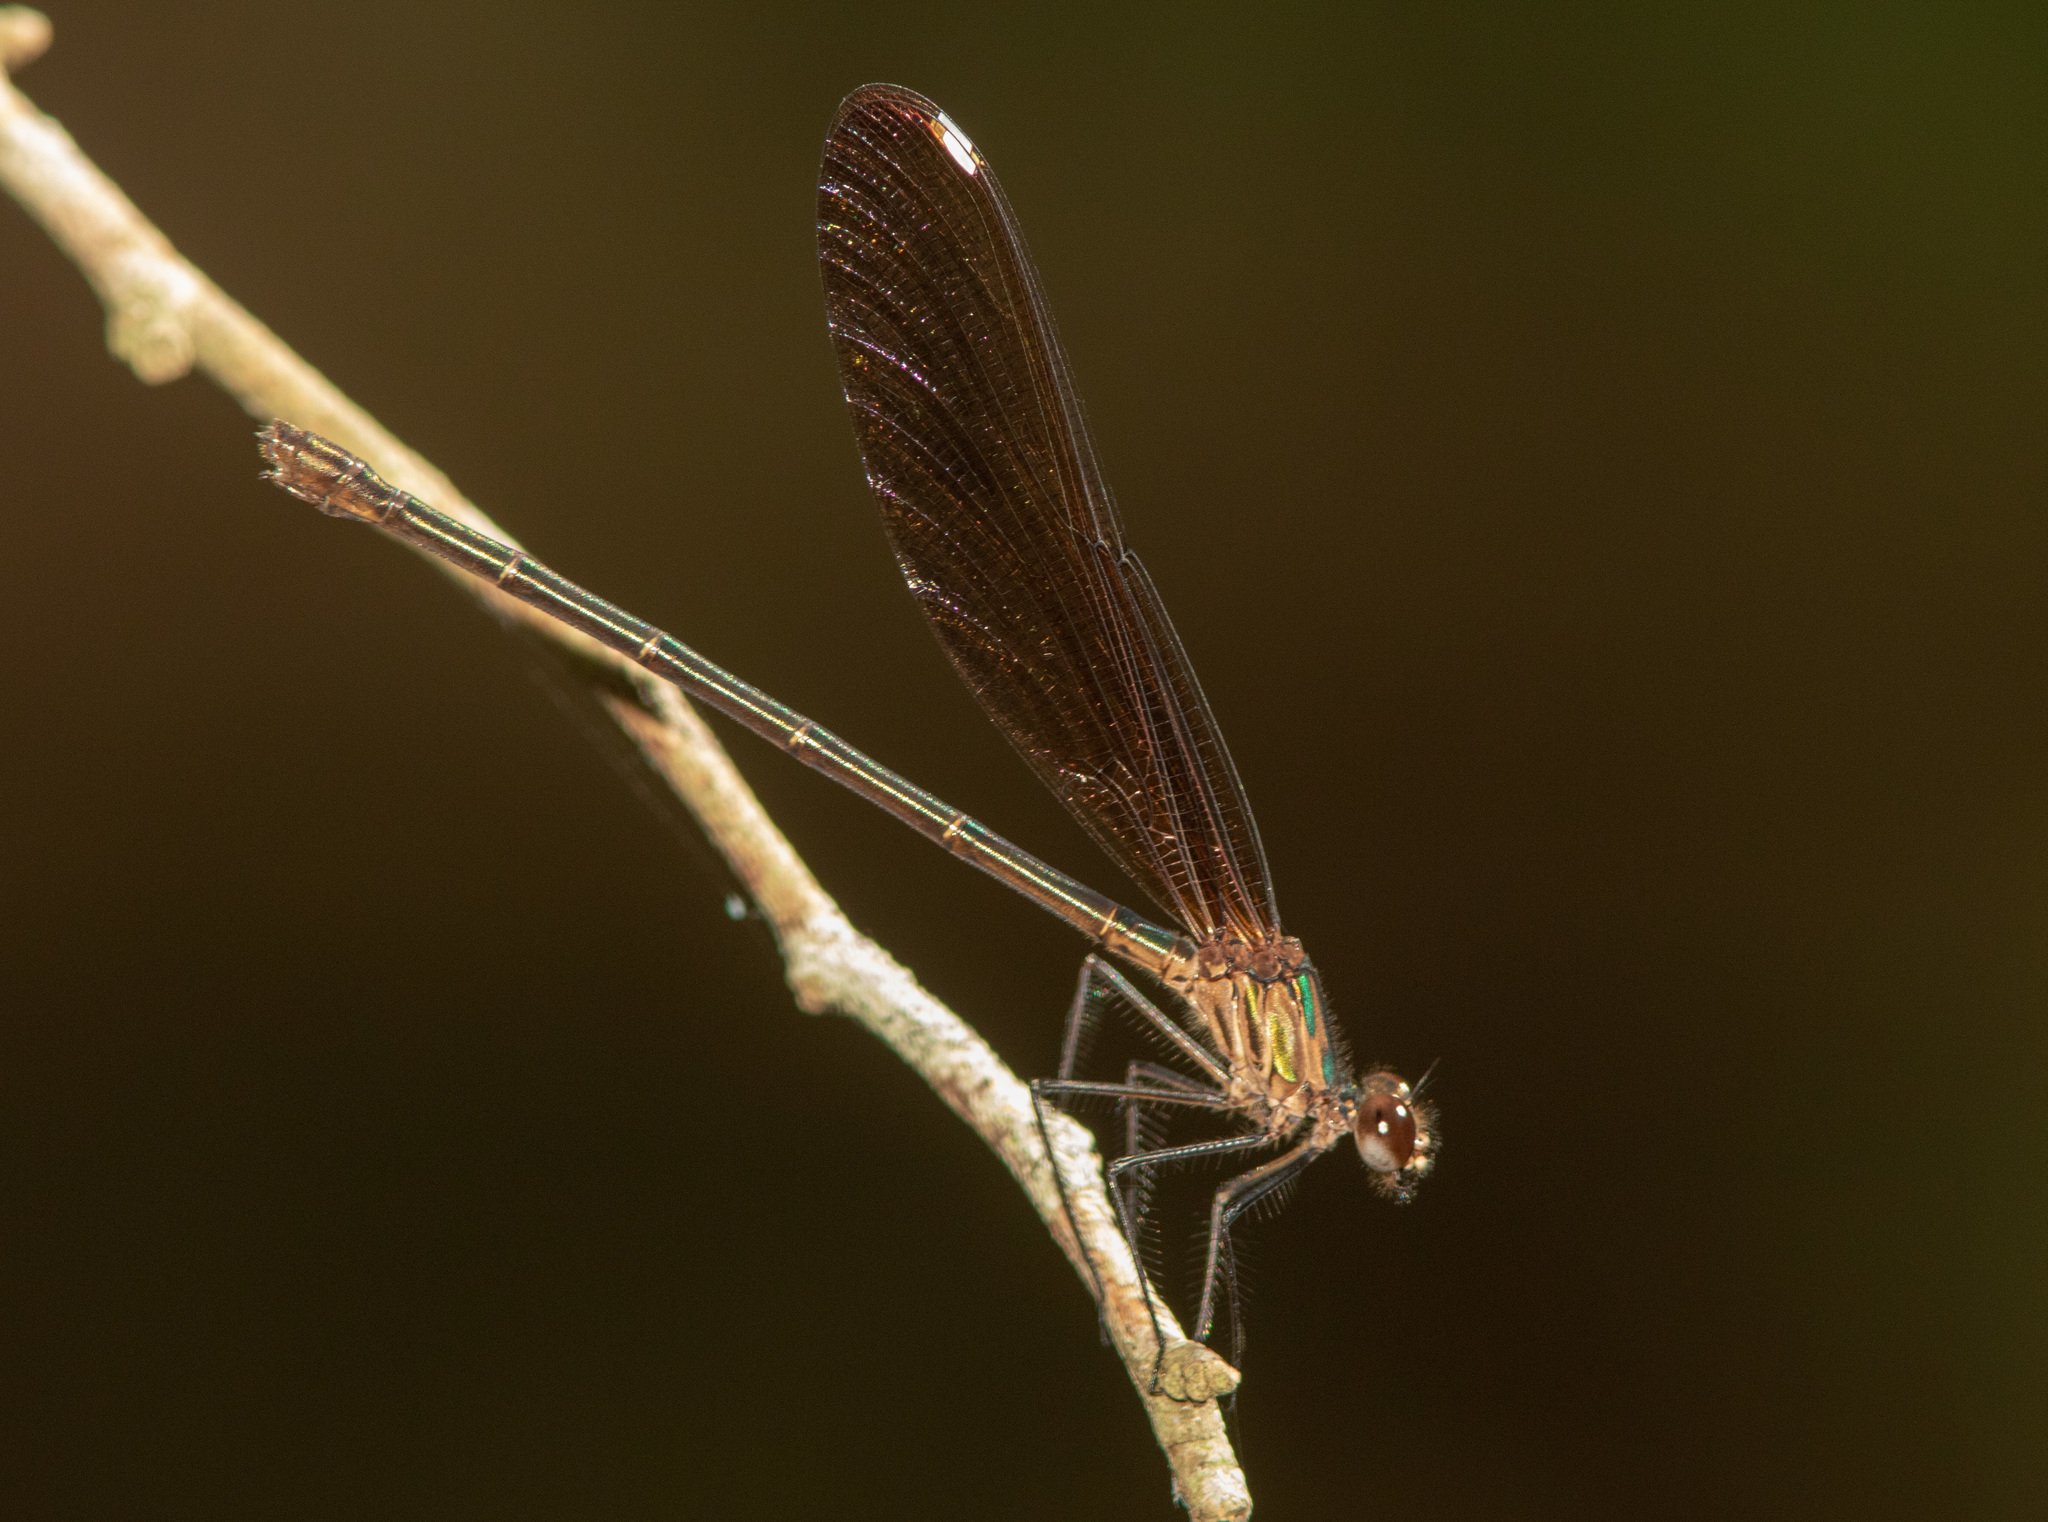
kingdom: Animalia
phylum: Arthropoda
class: Insecta
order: Odonata
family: Calopterygidae
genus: Hetaerina
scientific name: Hetaerina titia
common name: Smoky rubyspot
